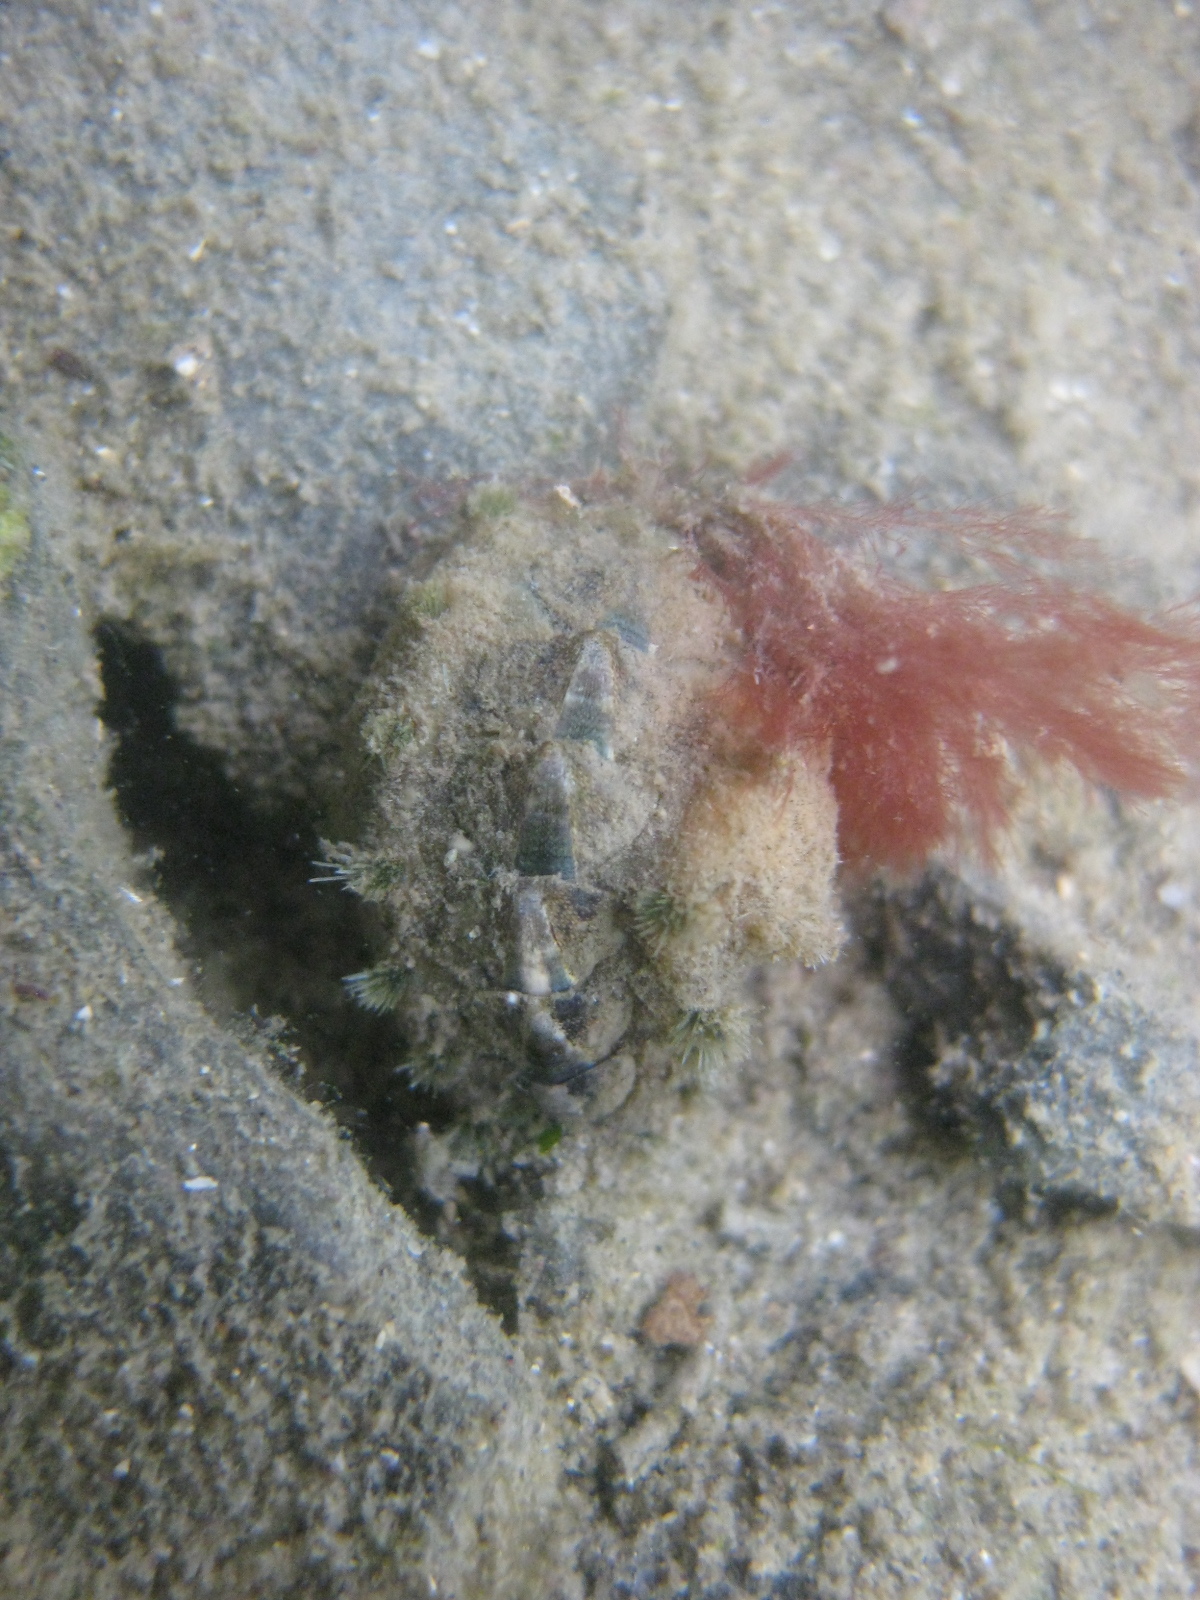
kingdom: Animalia
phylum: Mollusca
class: Polyplacophora
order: Chitonida
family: Acanthochitonidae
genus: Acanthochitona
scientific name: Acanthochitona zelandica
